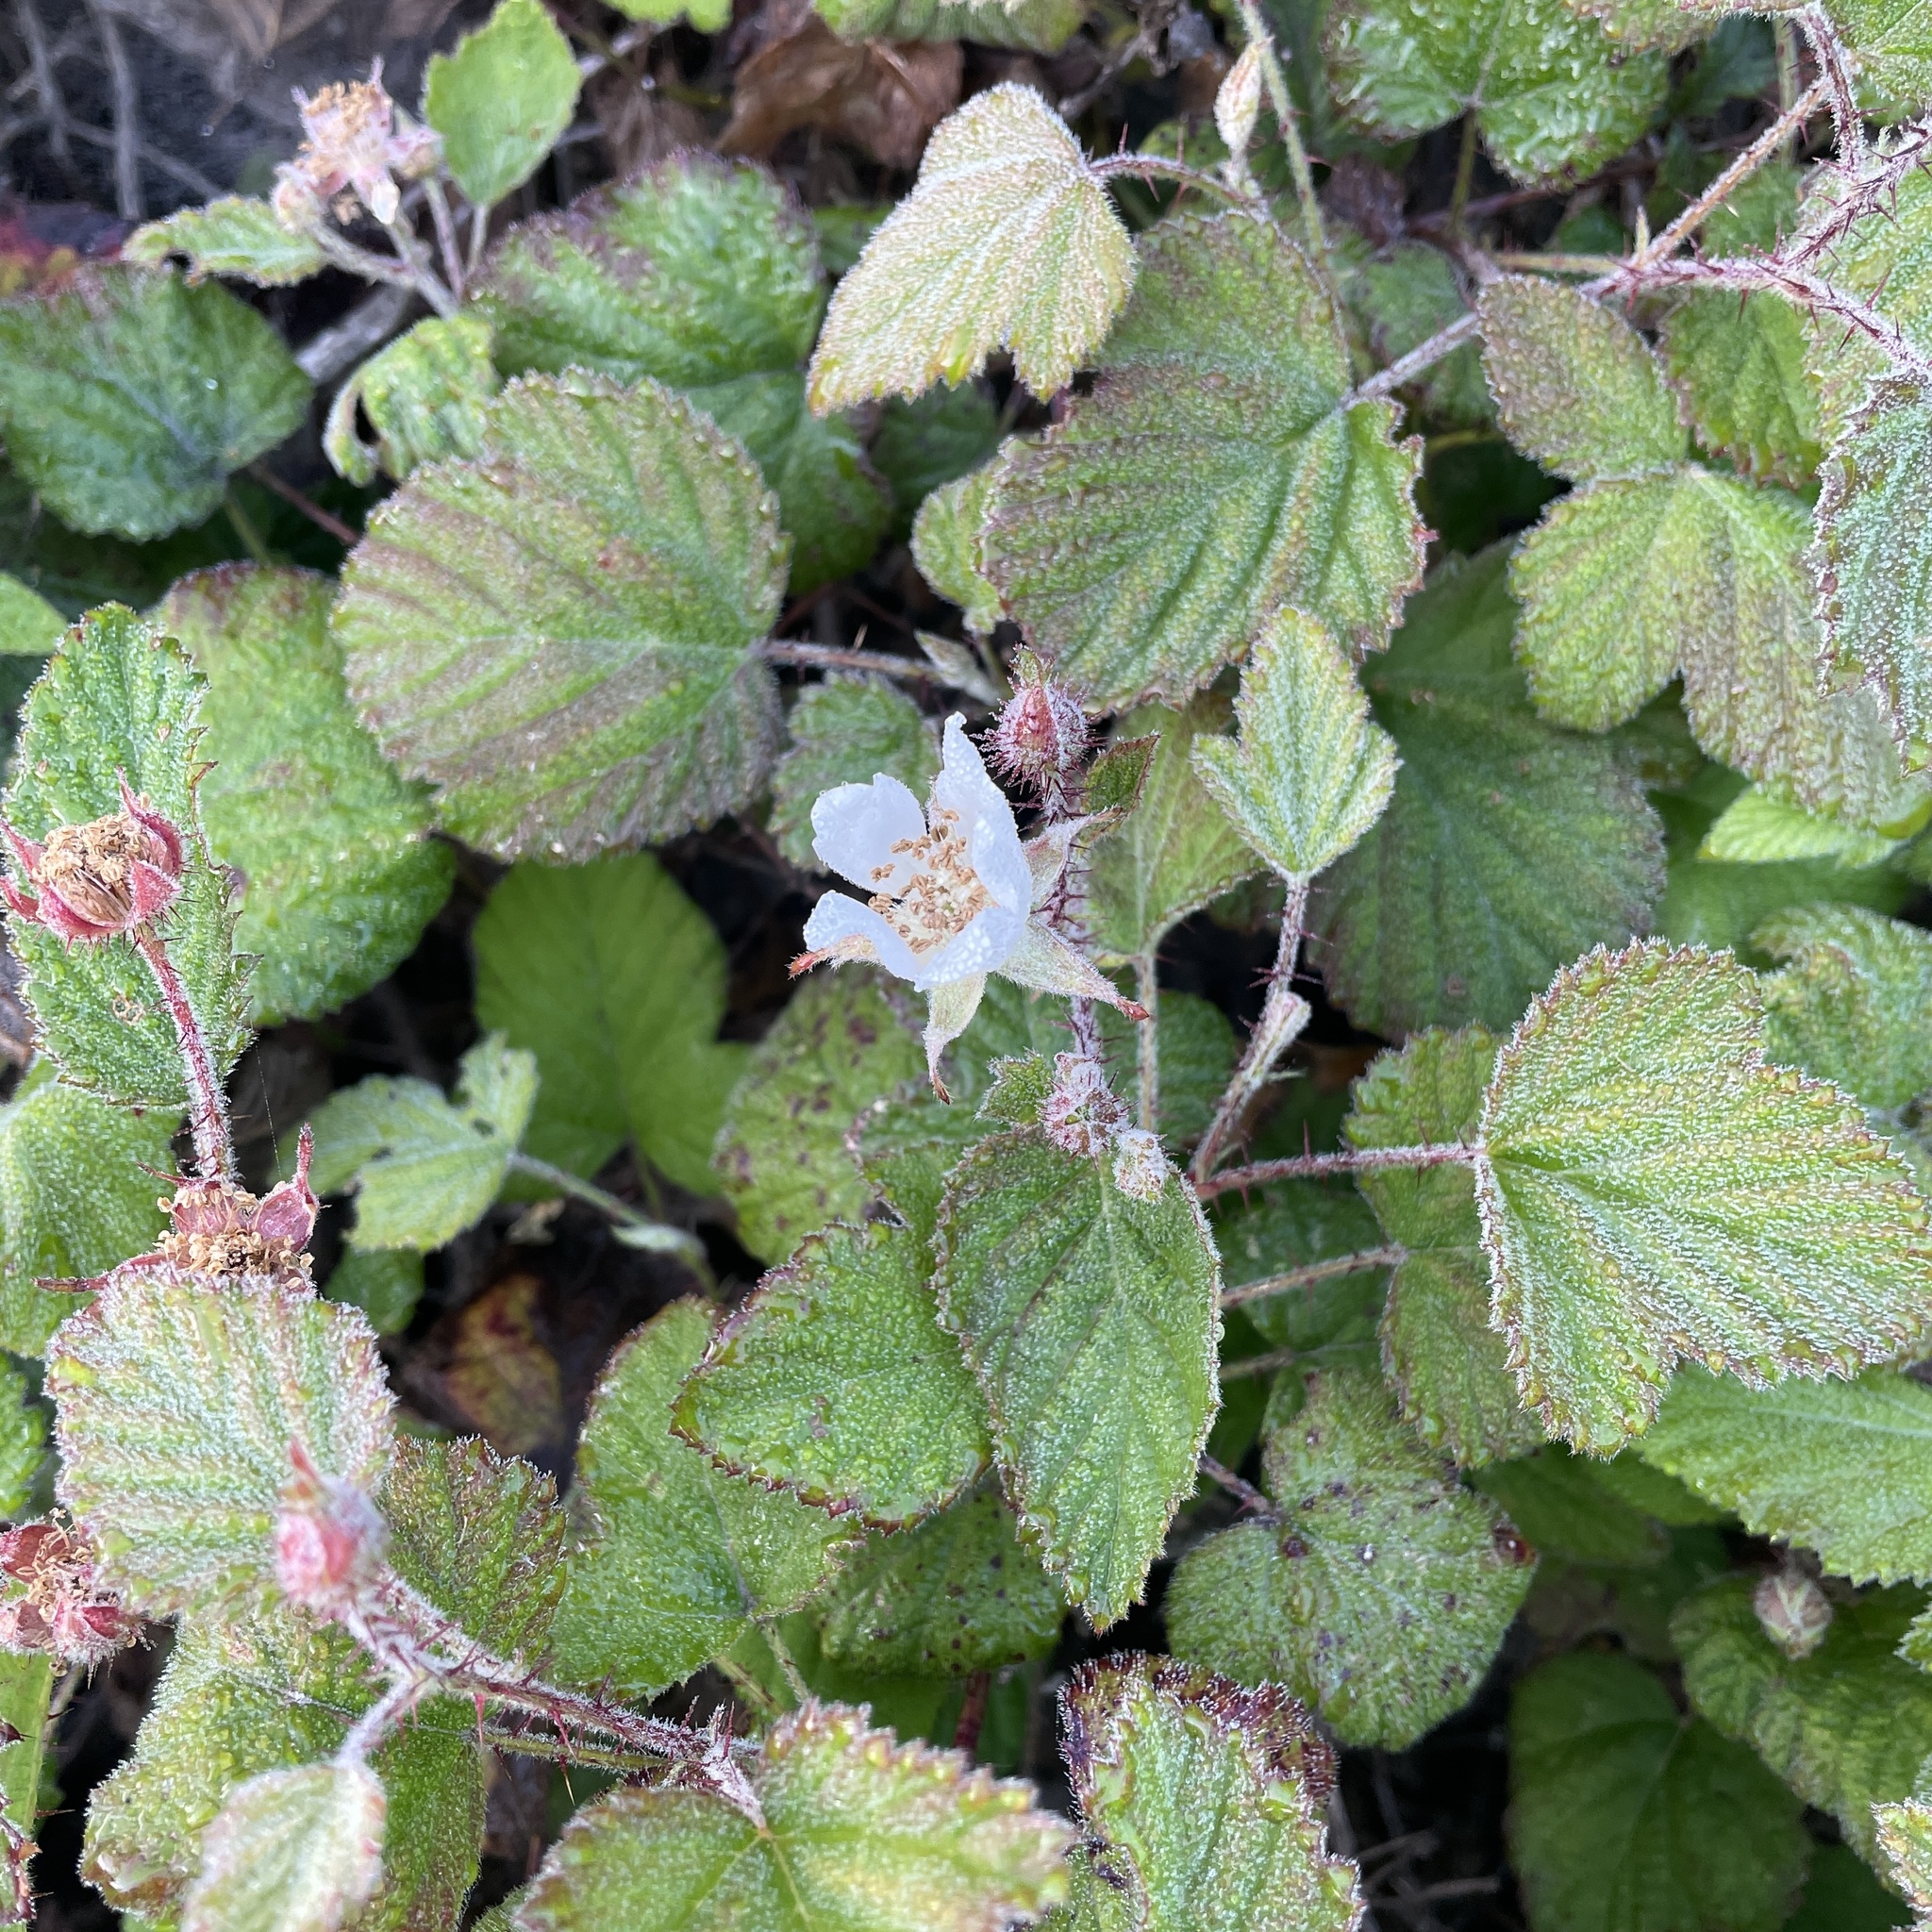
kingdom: Plantae
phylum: Tracheophyta
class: Magnoliopsida
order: Rosales
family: Rosaceae
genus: Rubus
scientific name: Rubus ursinus
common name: Pacific blackberry
